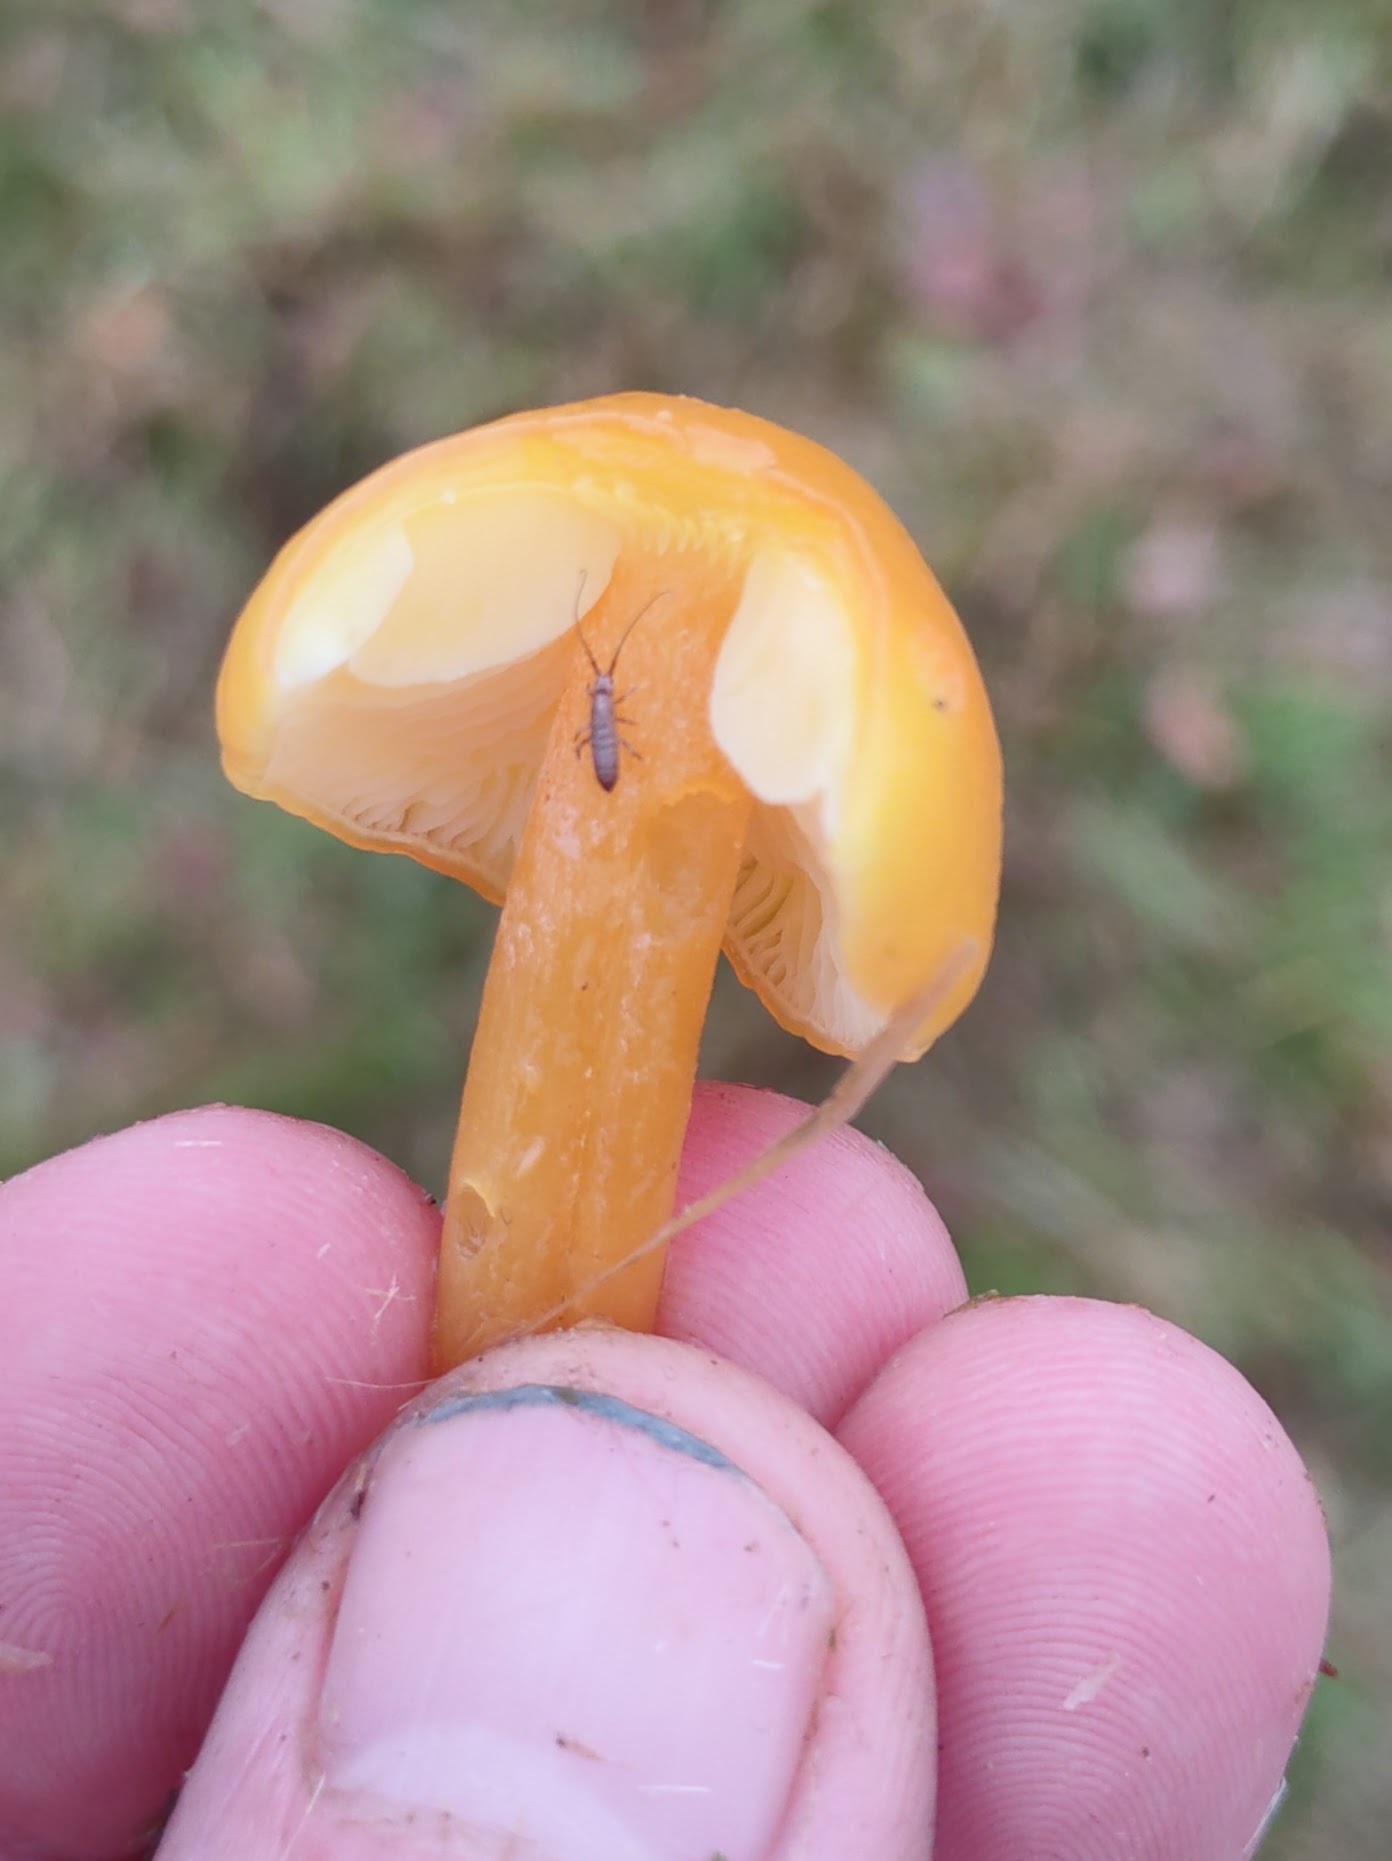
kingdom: Fungi
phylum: Basidiomycota
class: Agaricomycetes
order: Agaricales
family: Hygrophoraceae
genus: Hygrocybe
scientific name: Hygrocybe chlorophana
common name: Golden waxcap
